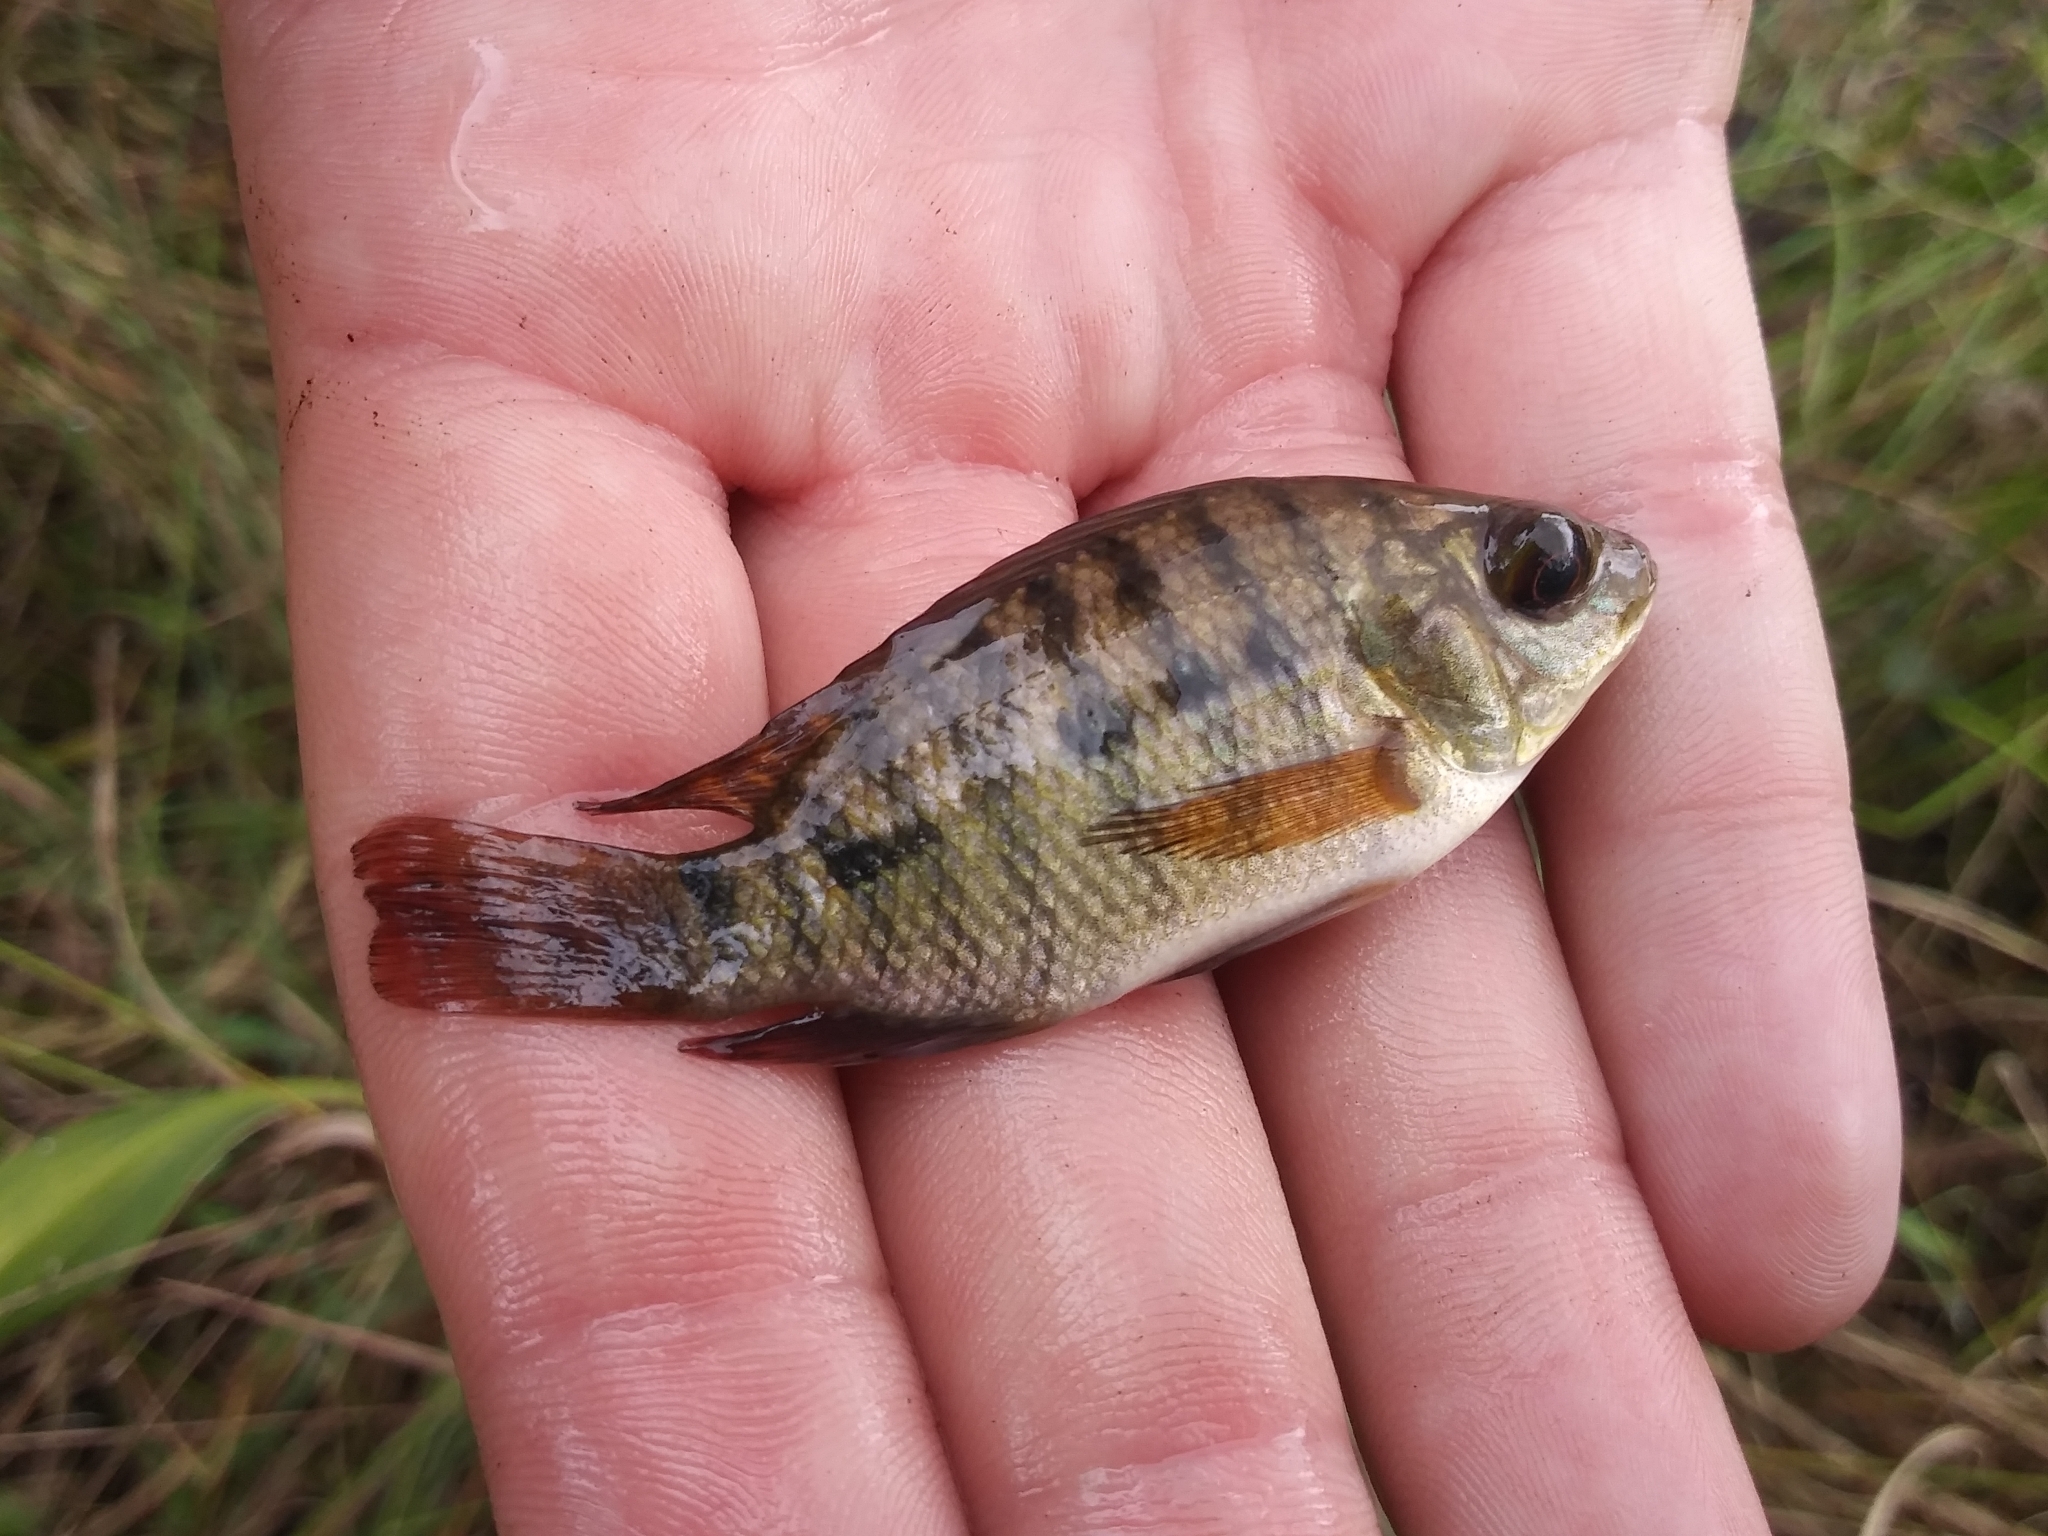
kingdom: Animalia
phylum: Chordata
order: Perciformes
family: Cichlidae
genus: Pelmatolapia
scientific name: Pelmatolapia mariae
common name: Spotted tilapia
